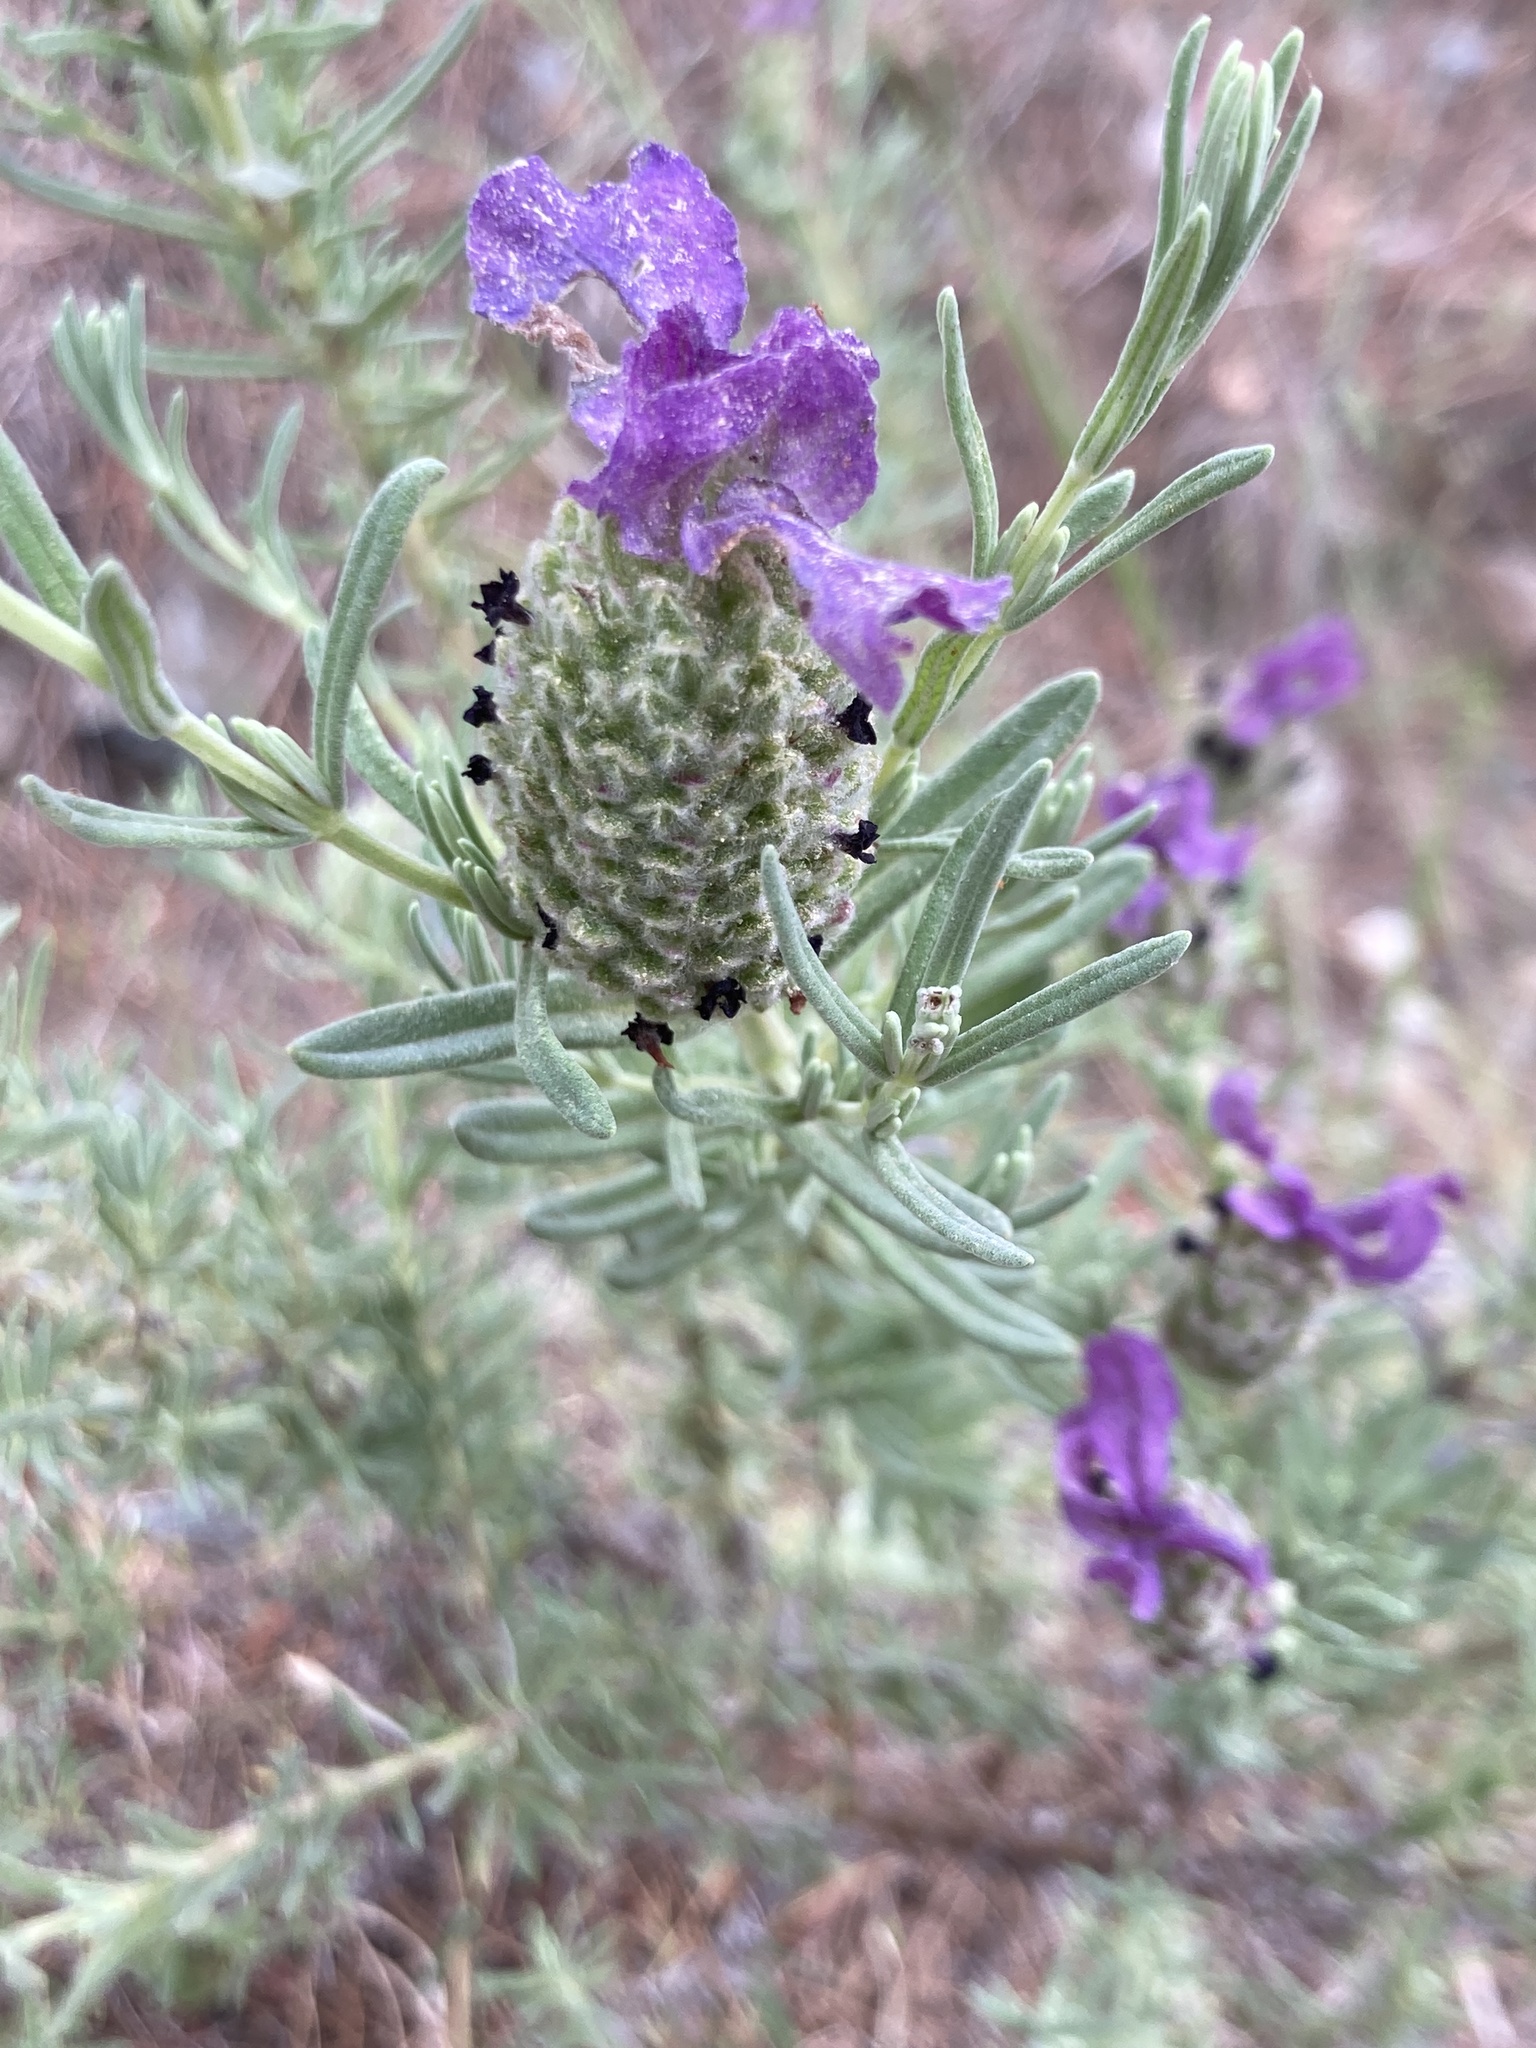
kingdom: Plantae
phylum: Tracheophyta
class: Magnoliopsida
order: Lamiales
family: Lamiaceae
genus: Lavandula
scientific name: Lavandula stoechas
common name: French lavender
